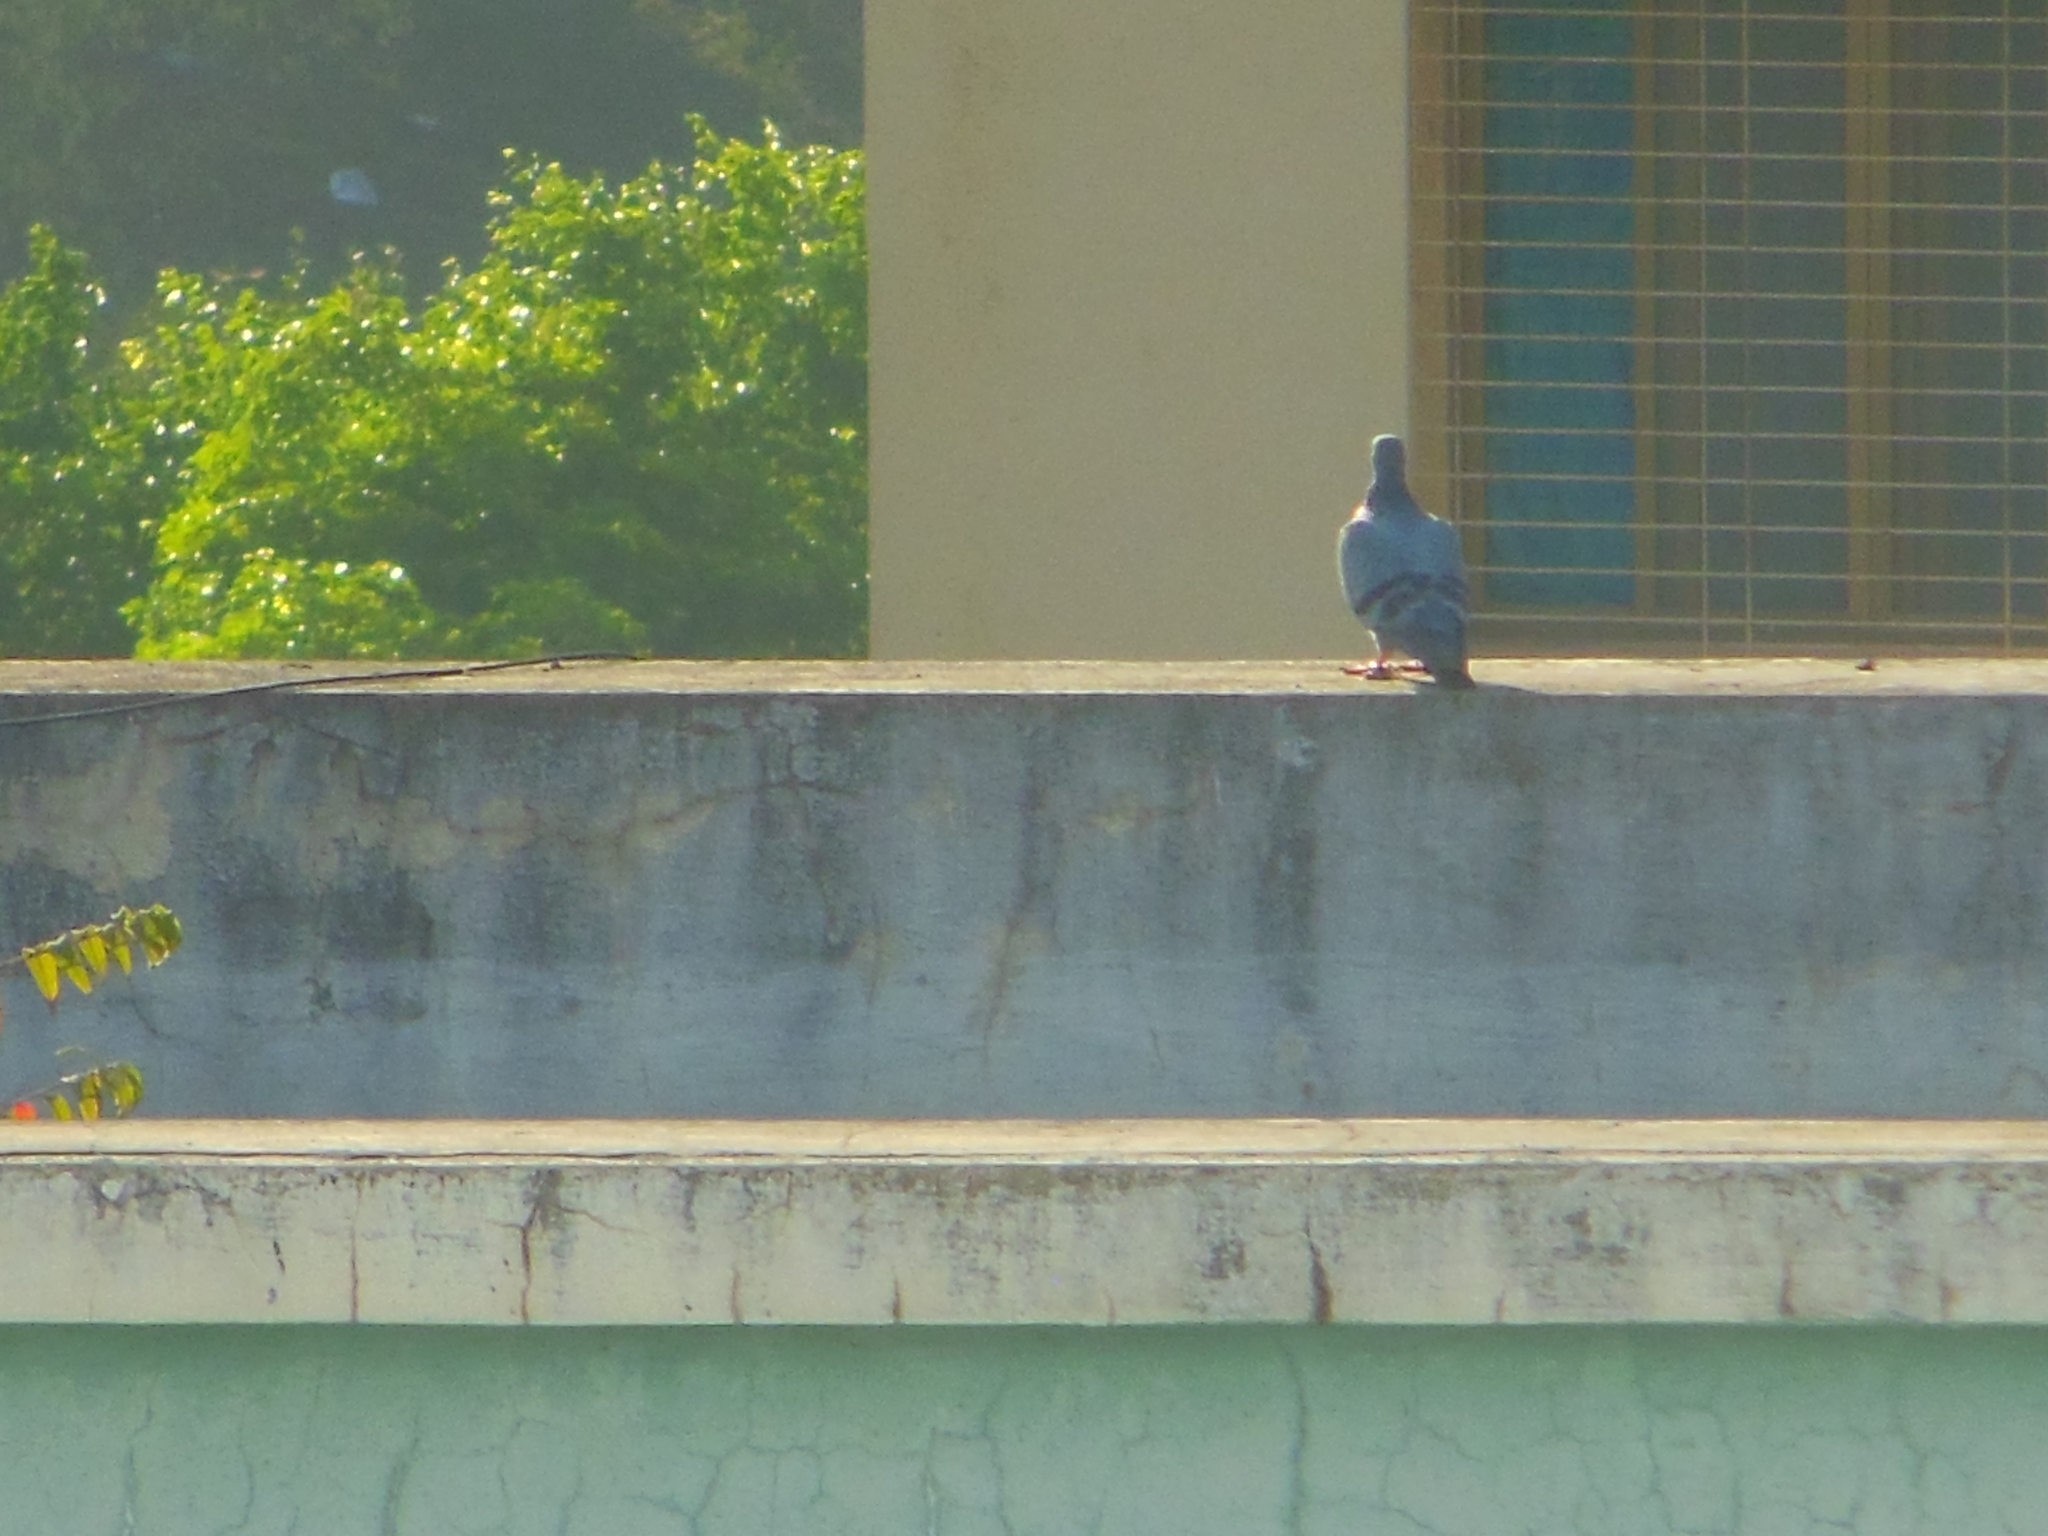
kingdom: Animalia
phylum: Chordata
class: Aves
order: Columbiformes
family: Columbidae
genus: Columba
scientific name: Columba livia
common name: Rock pigeon
